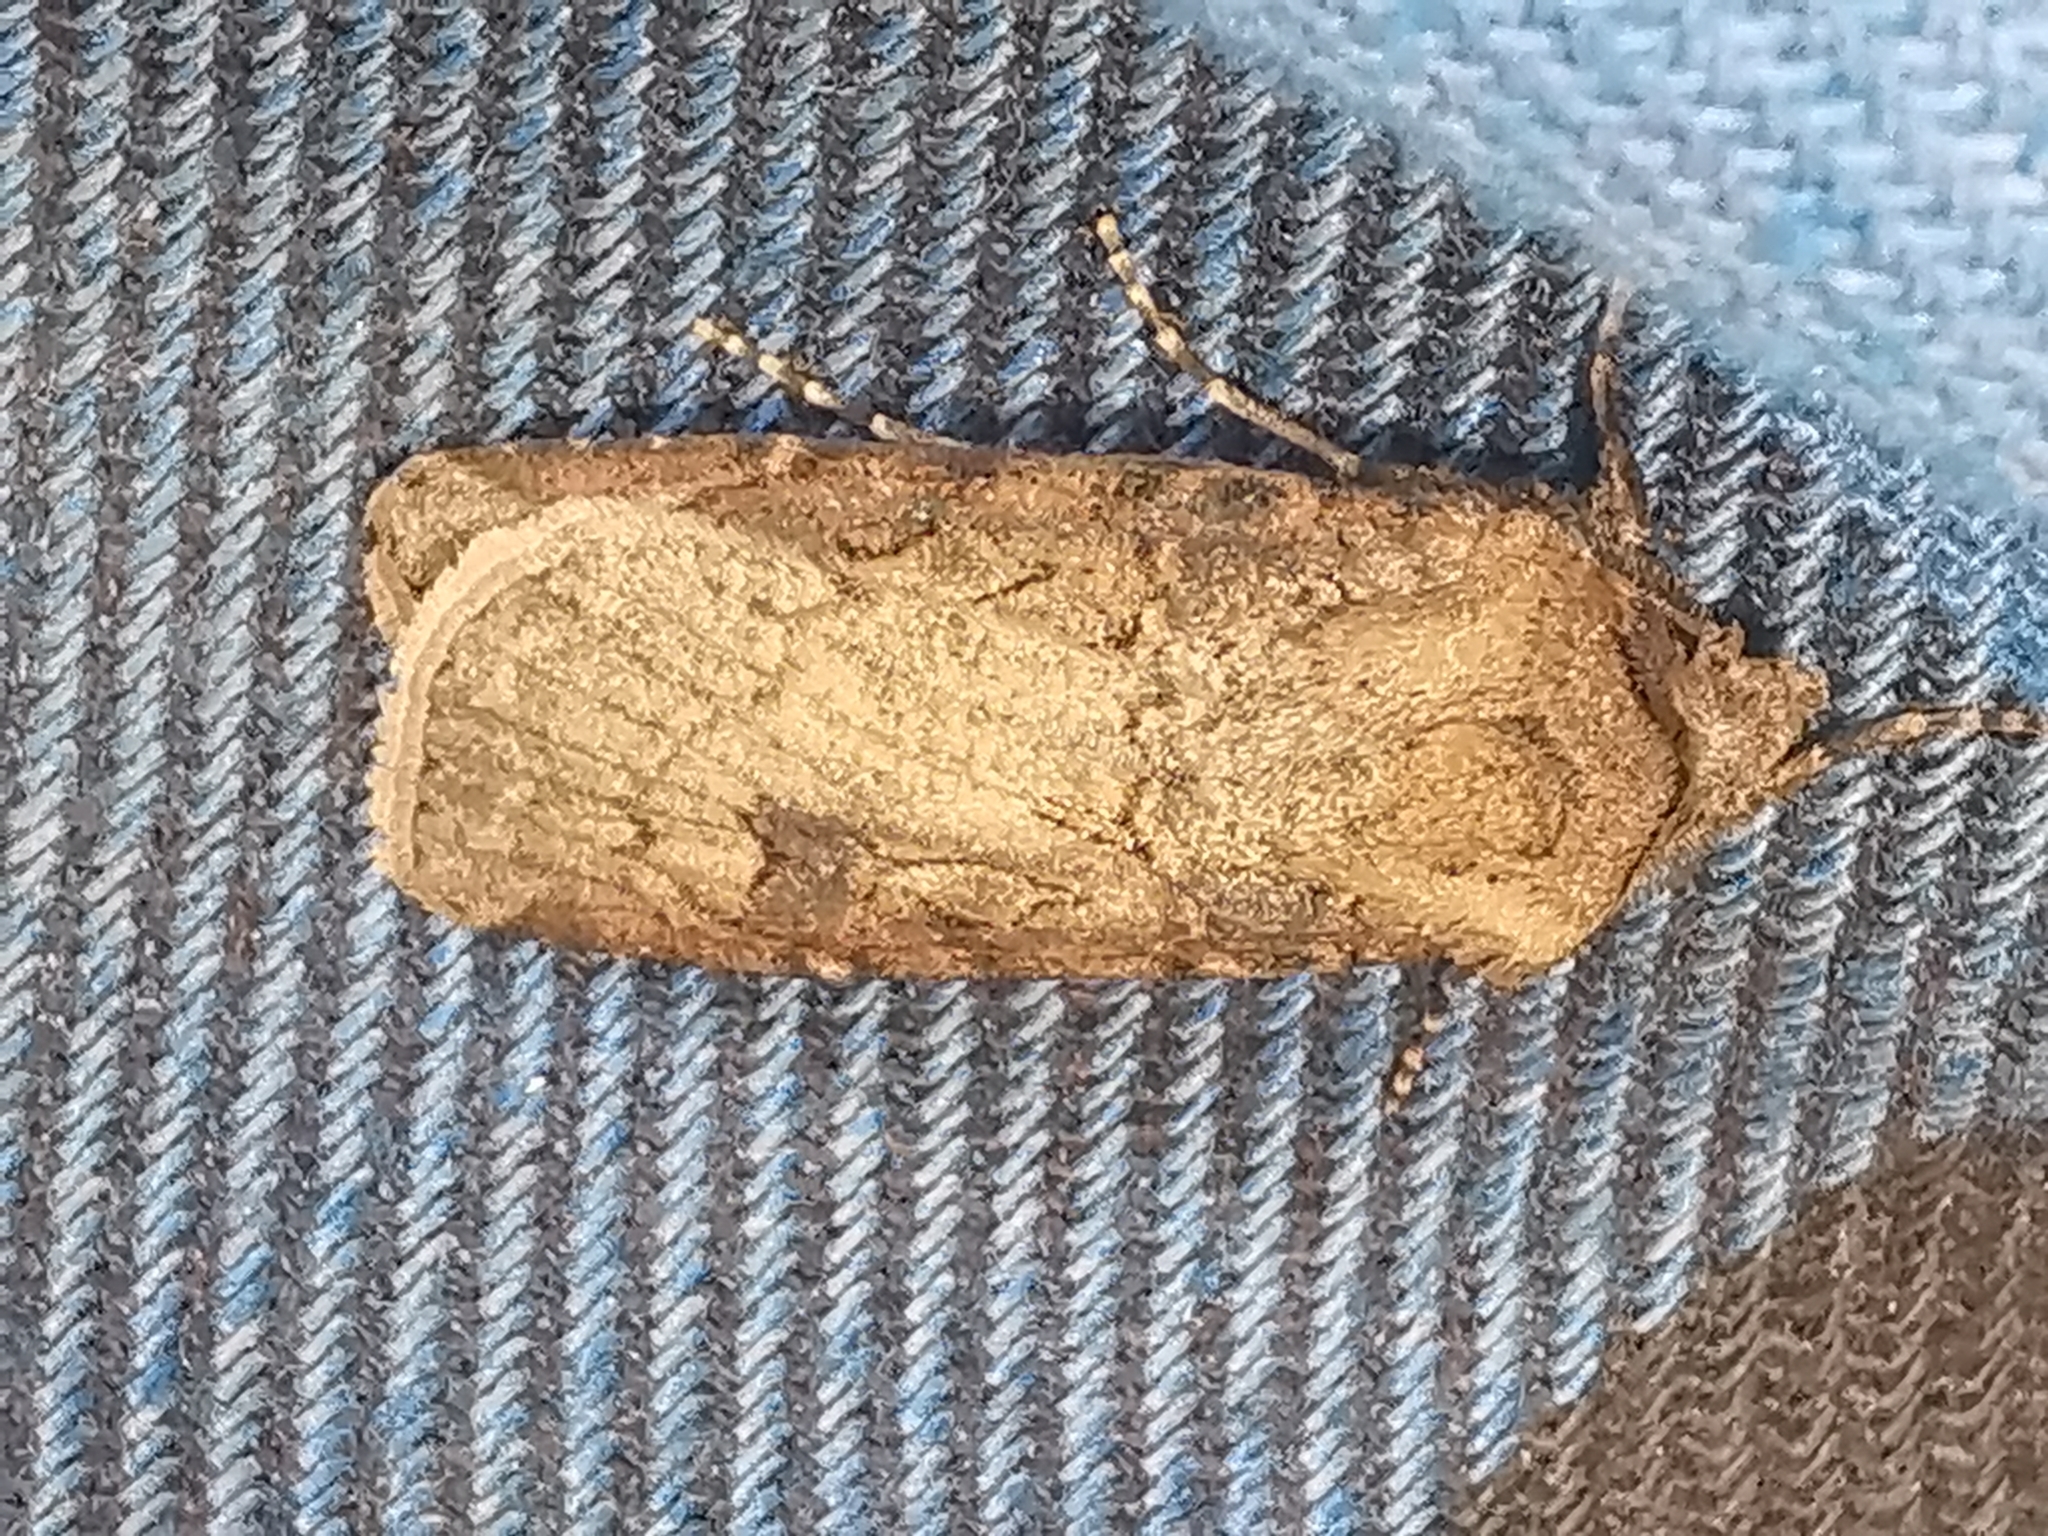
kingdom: Animalia
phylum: Arthropoda
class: Insecta
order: Lepidoptera
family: Noctuidae
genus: Agrotis
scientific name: Agrotis segetum
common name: Turnip moth
